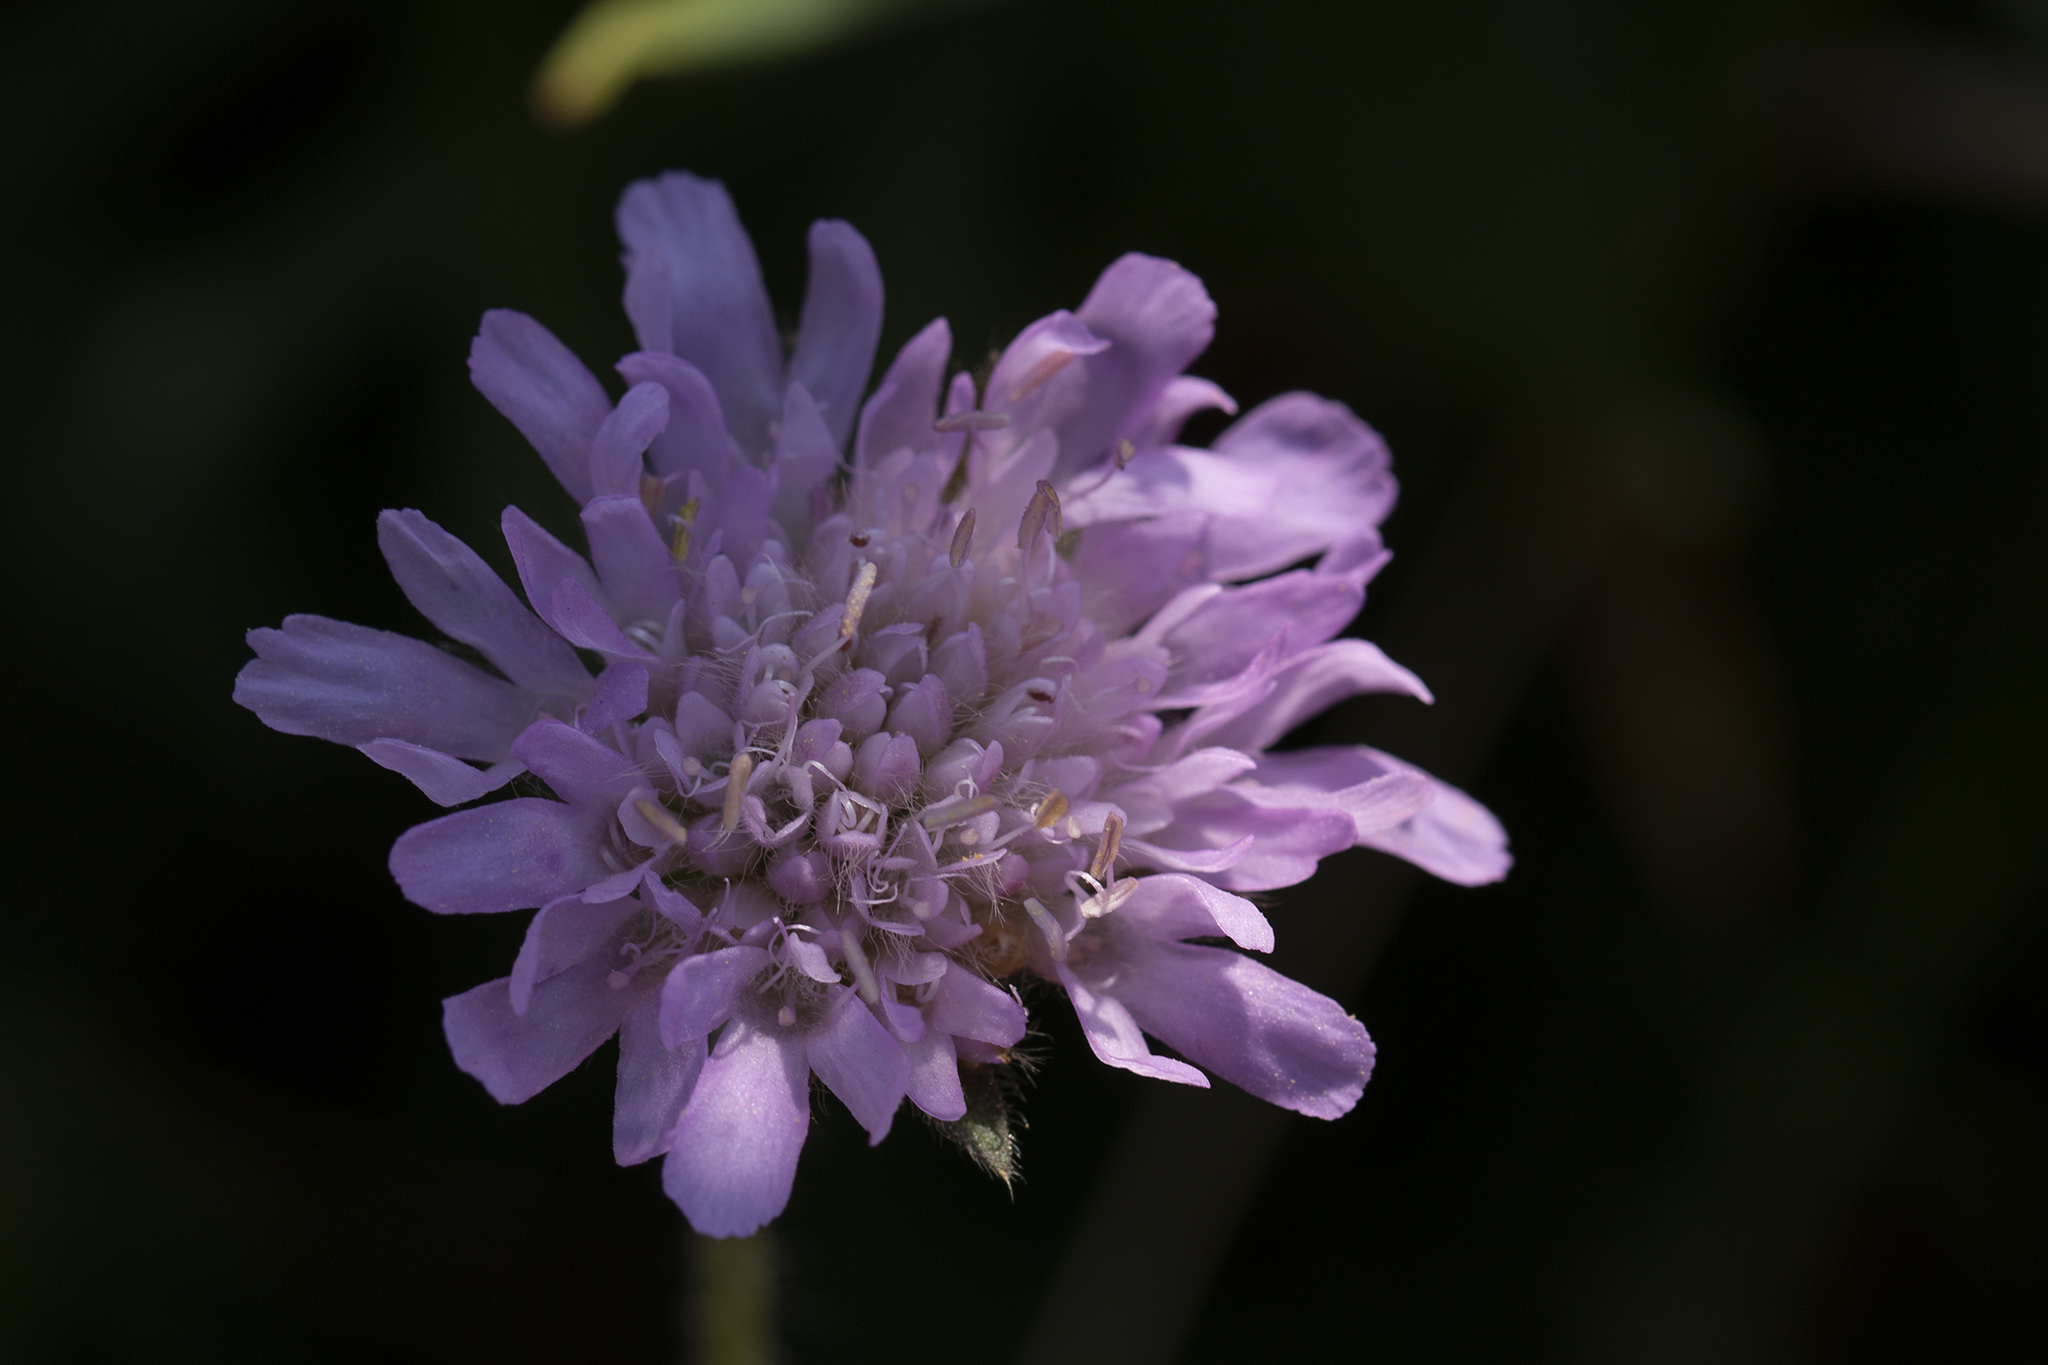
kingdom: Plantae
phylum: Tracheophyta
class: Magnoliopsida
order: Dipsacales
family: Caprifoliaceae
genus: Knautia
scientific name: Knautia arvensis
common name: Field scabiosa
